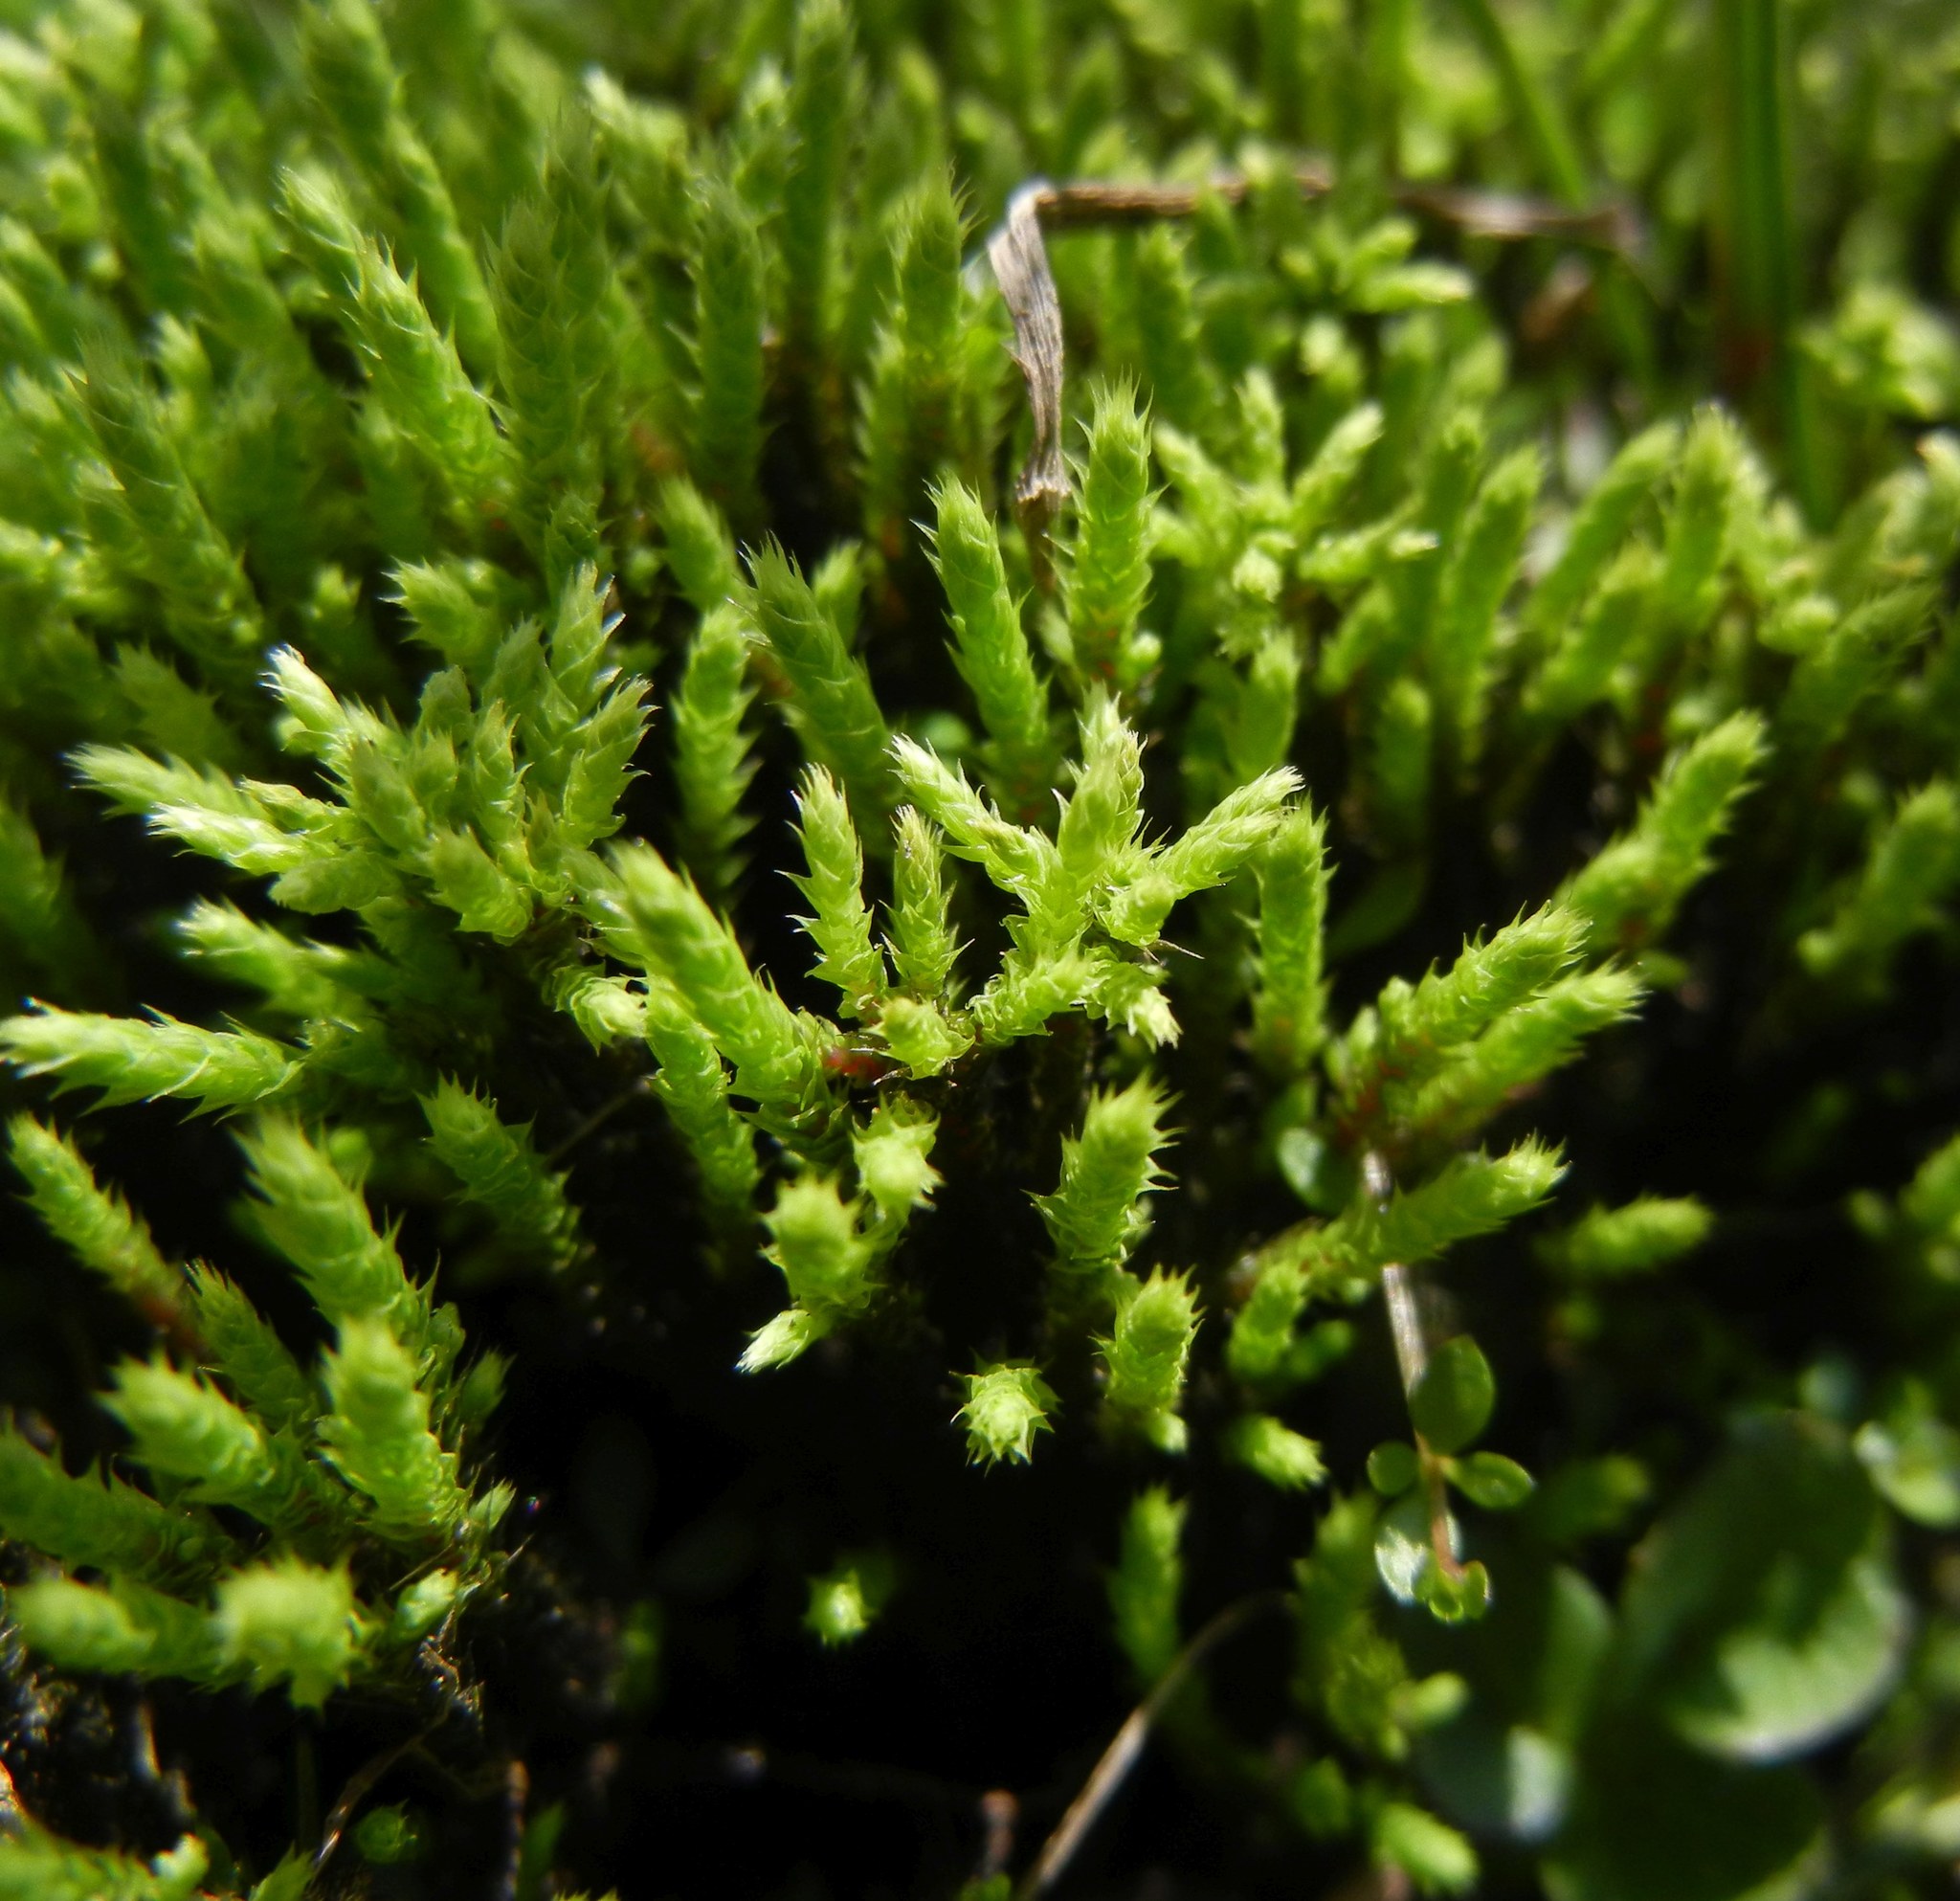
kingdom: Plantae
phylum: Bryophyta
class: Bryopsida
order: Bartramiales
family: Bartramiaceae
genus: Philonotis
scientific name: Philonotis fontana
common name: Fountain apple-moss
